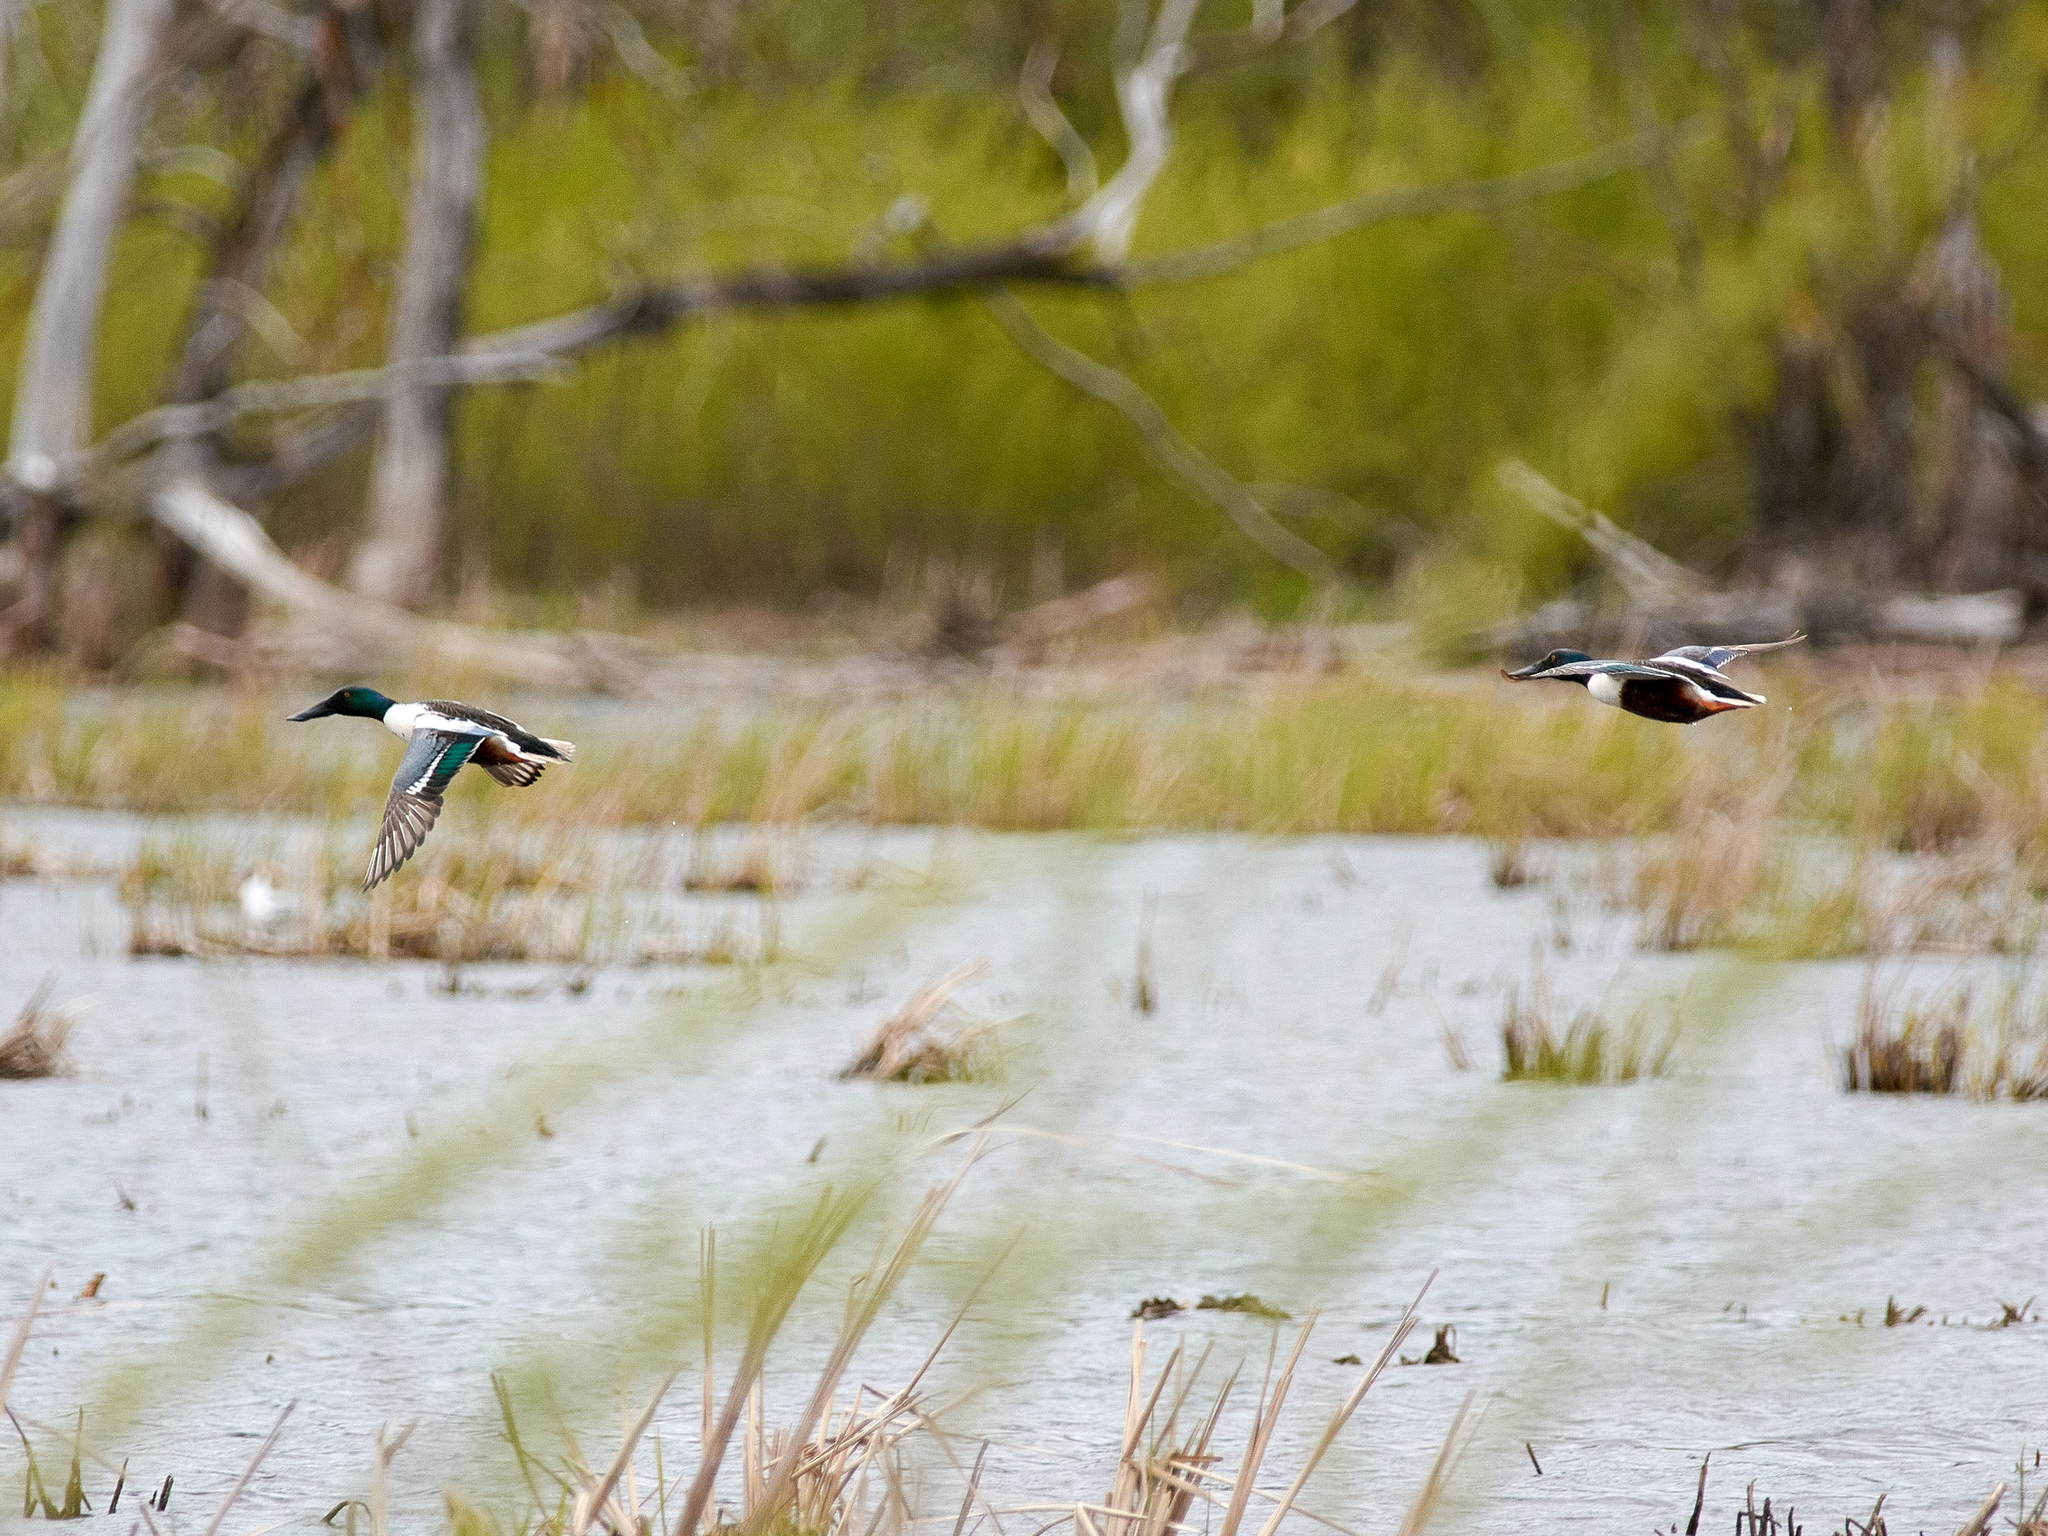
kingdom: Animalia
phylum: Chordata
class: Aves
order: Anseriformes
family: Anatidae
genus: Spatula
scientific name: Spatula clypeata
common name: Northern shoveler
